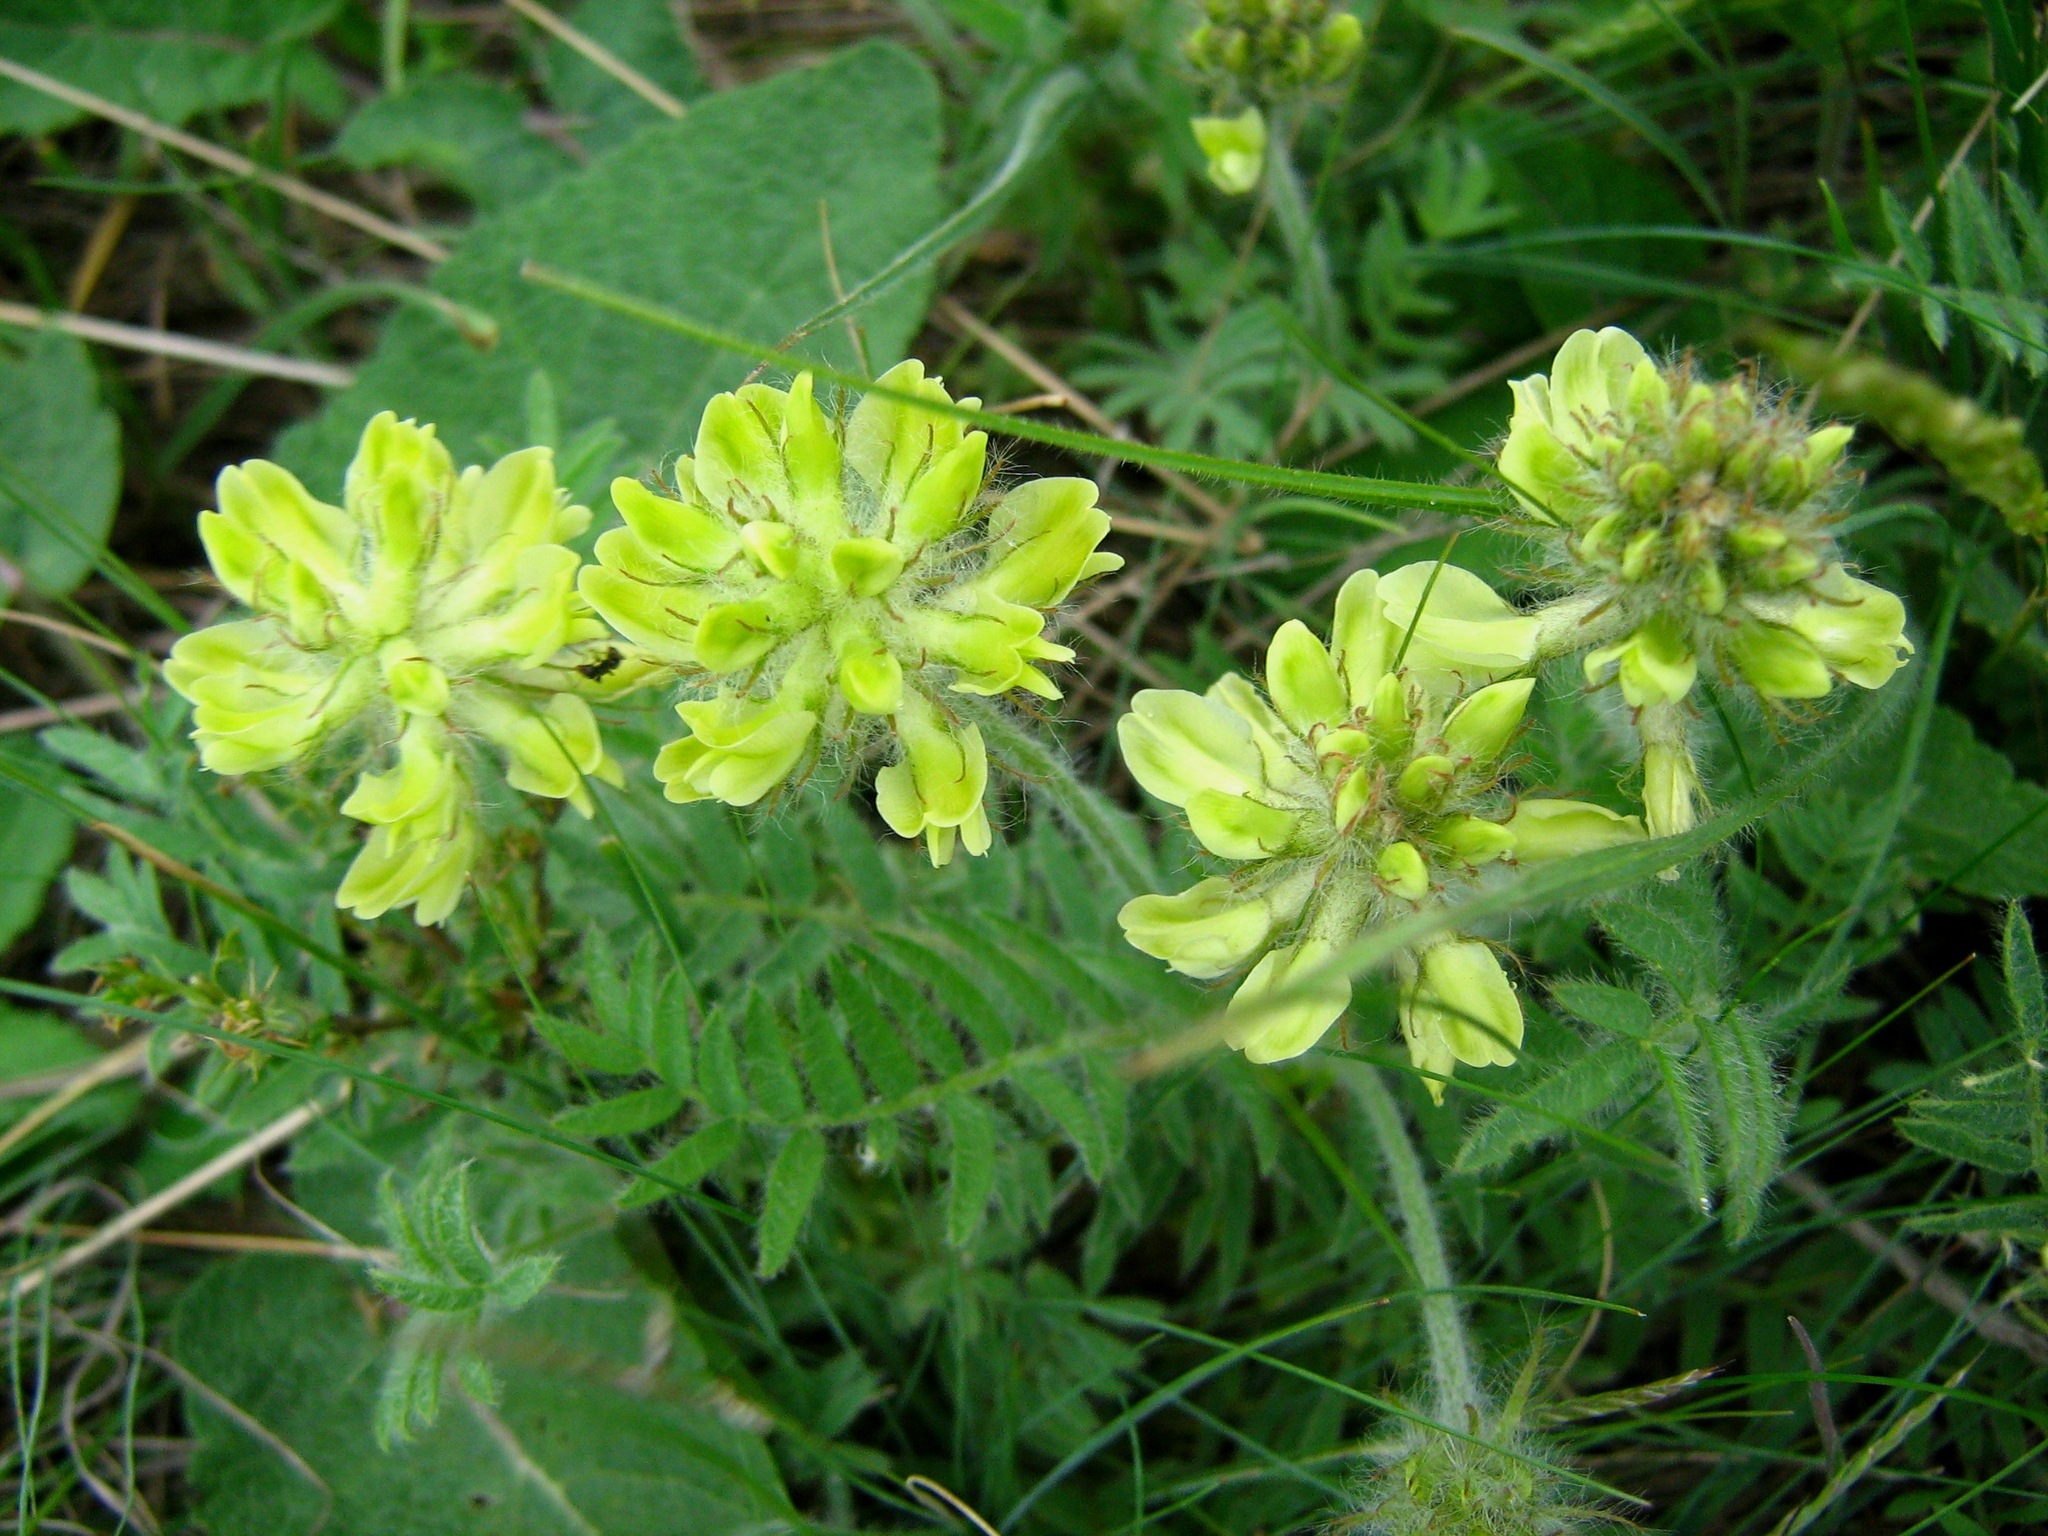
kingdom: Plantae
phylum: Tracheophyta
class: Magnoliopsida
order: Fabales
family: Fabaceae
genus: Oxytropis
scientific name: Oxytropis pilosa
